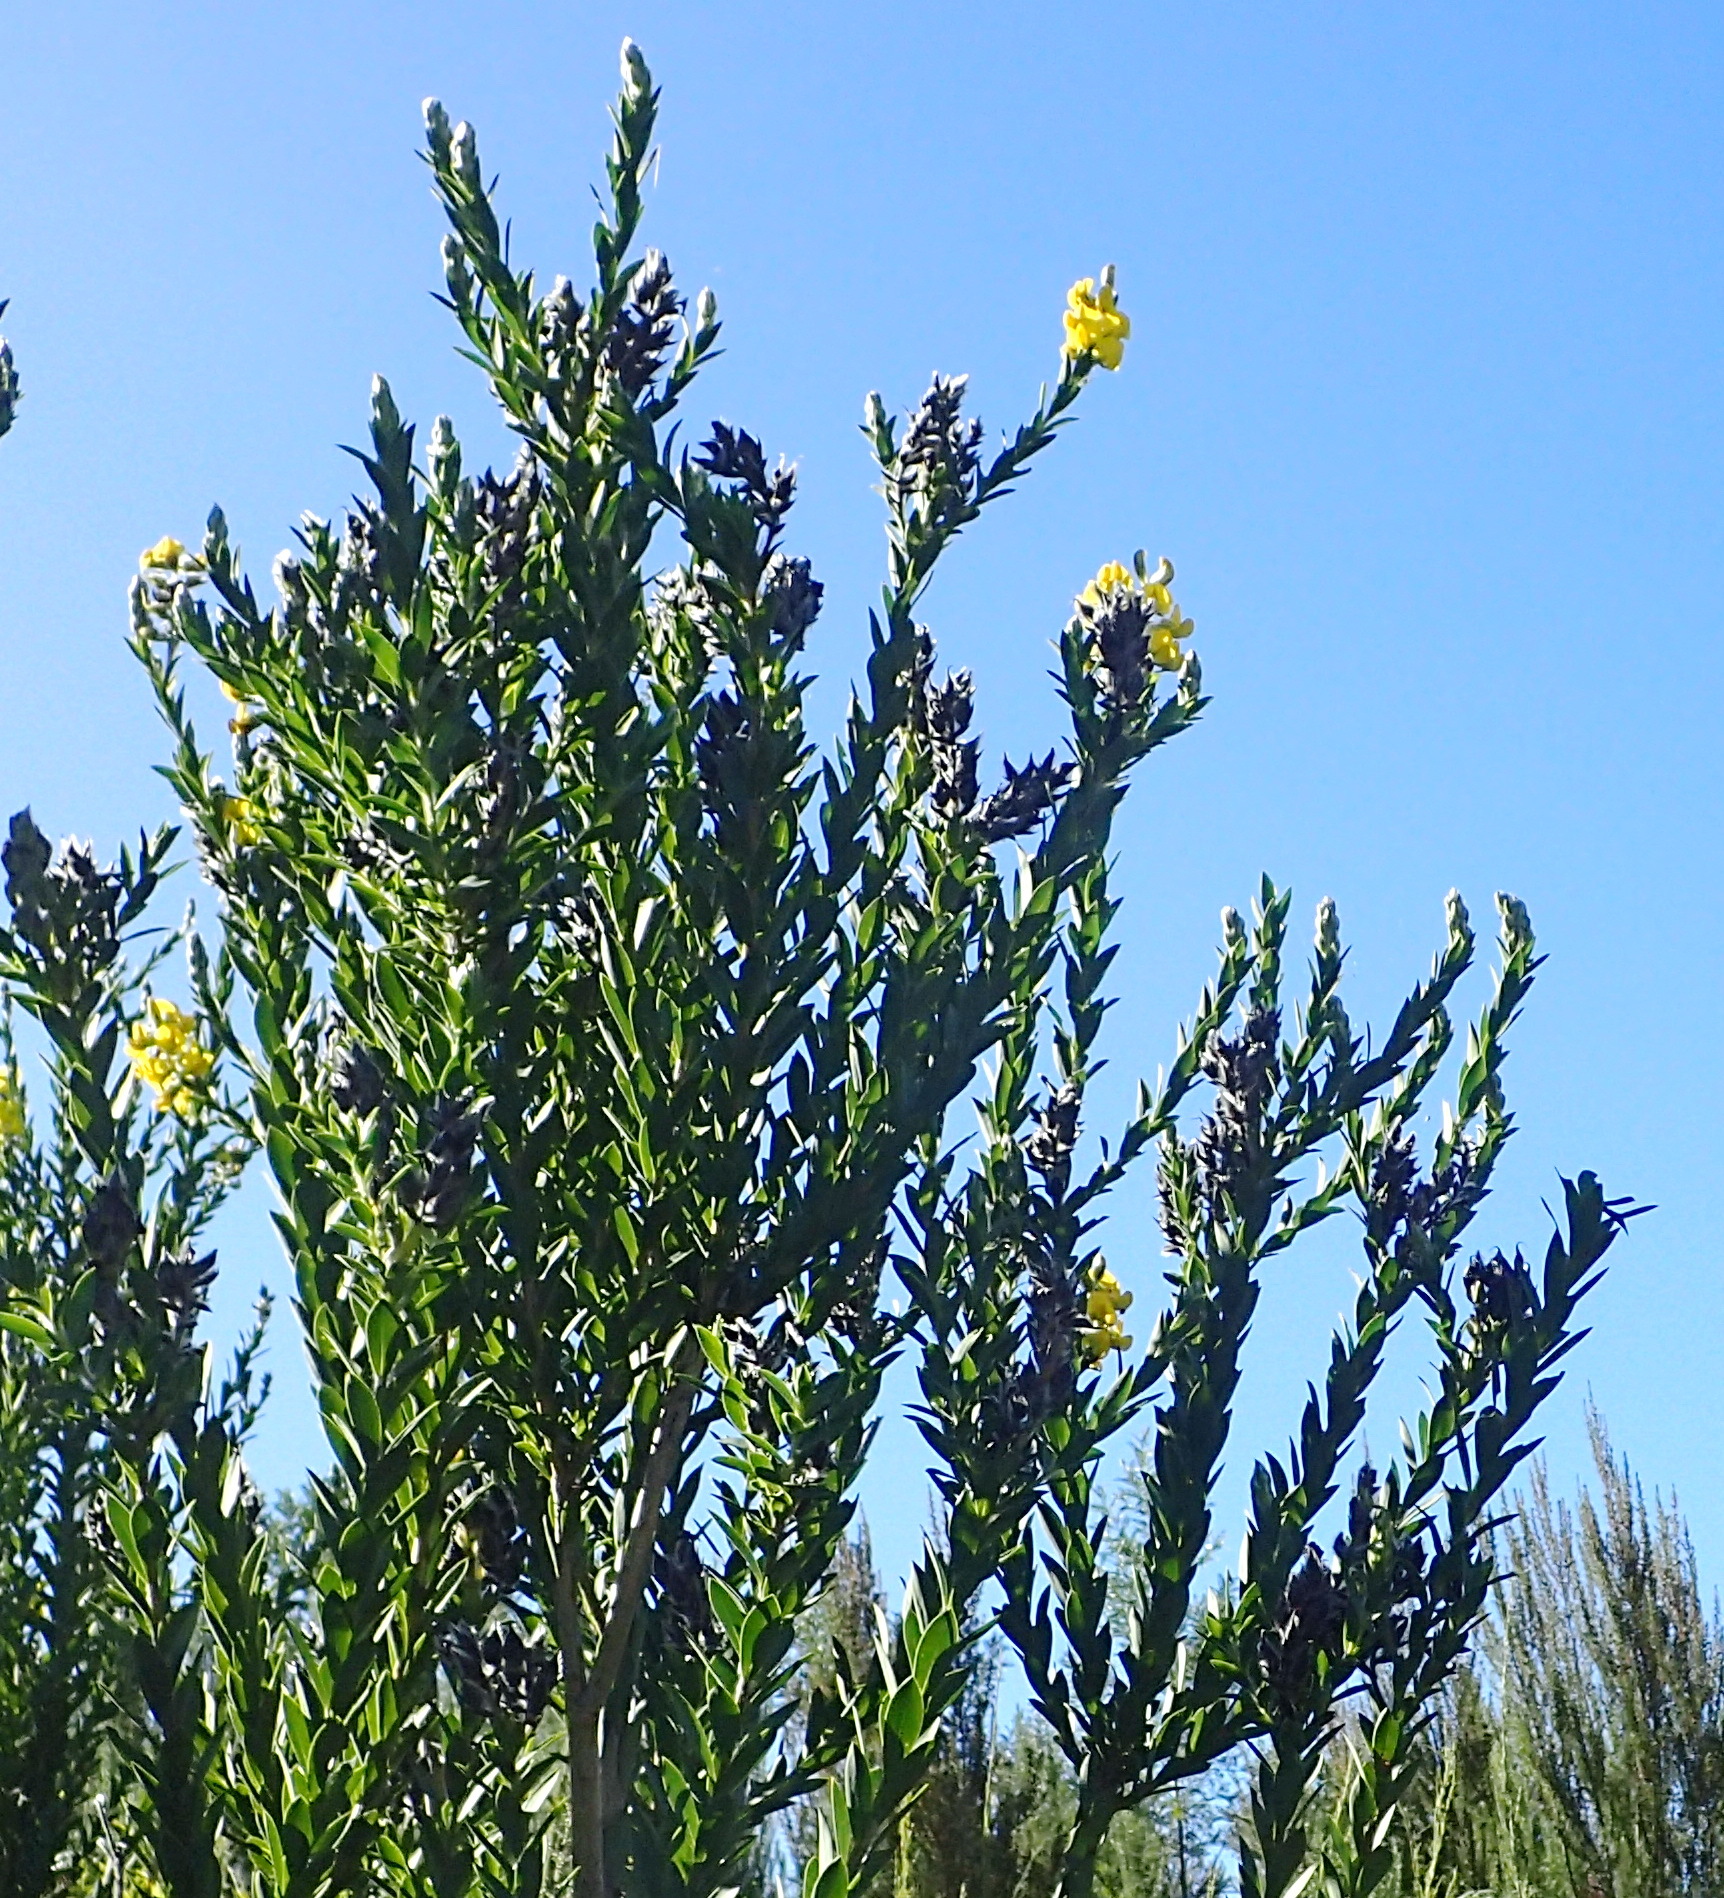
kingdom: Plantae
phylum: Tracheophyta
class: Magnoliopsida
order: Fabales
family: Fabaceae
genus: Liparia
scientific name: Liparia hirsuta
